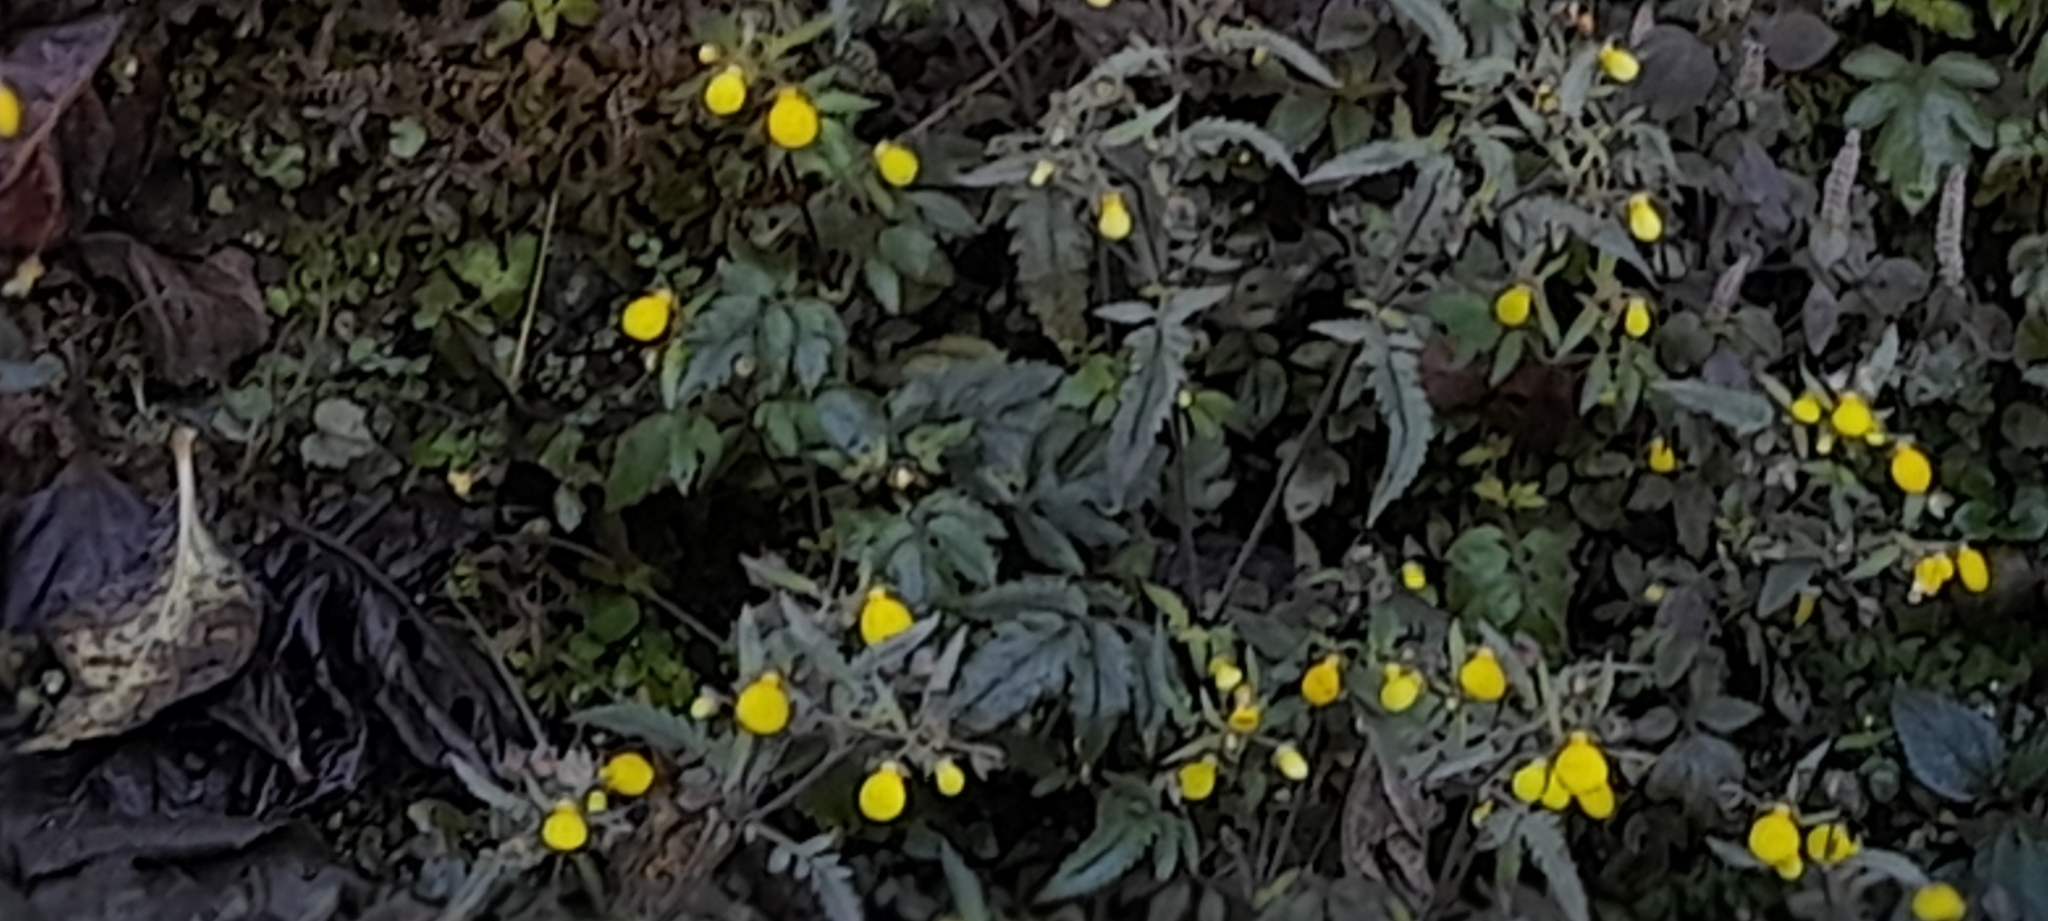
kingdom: Plantae
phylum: Tracheophyta
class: Magnoliopsida
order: Lamiales
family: Calceolariaceae
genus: Calceolaria
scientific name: Calceolaria tripartita
